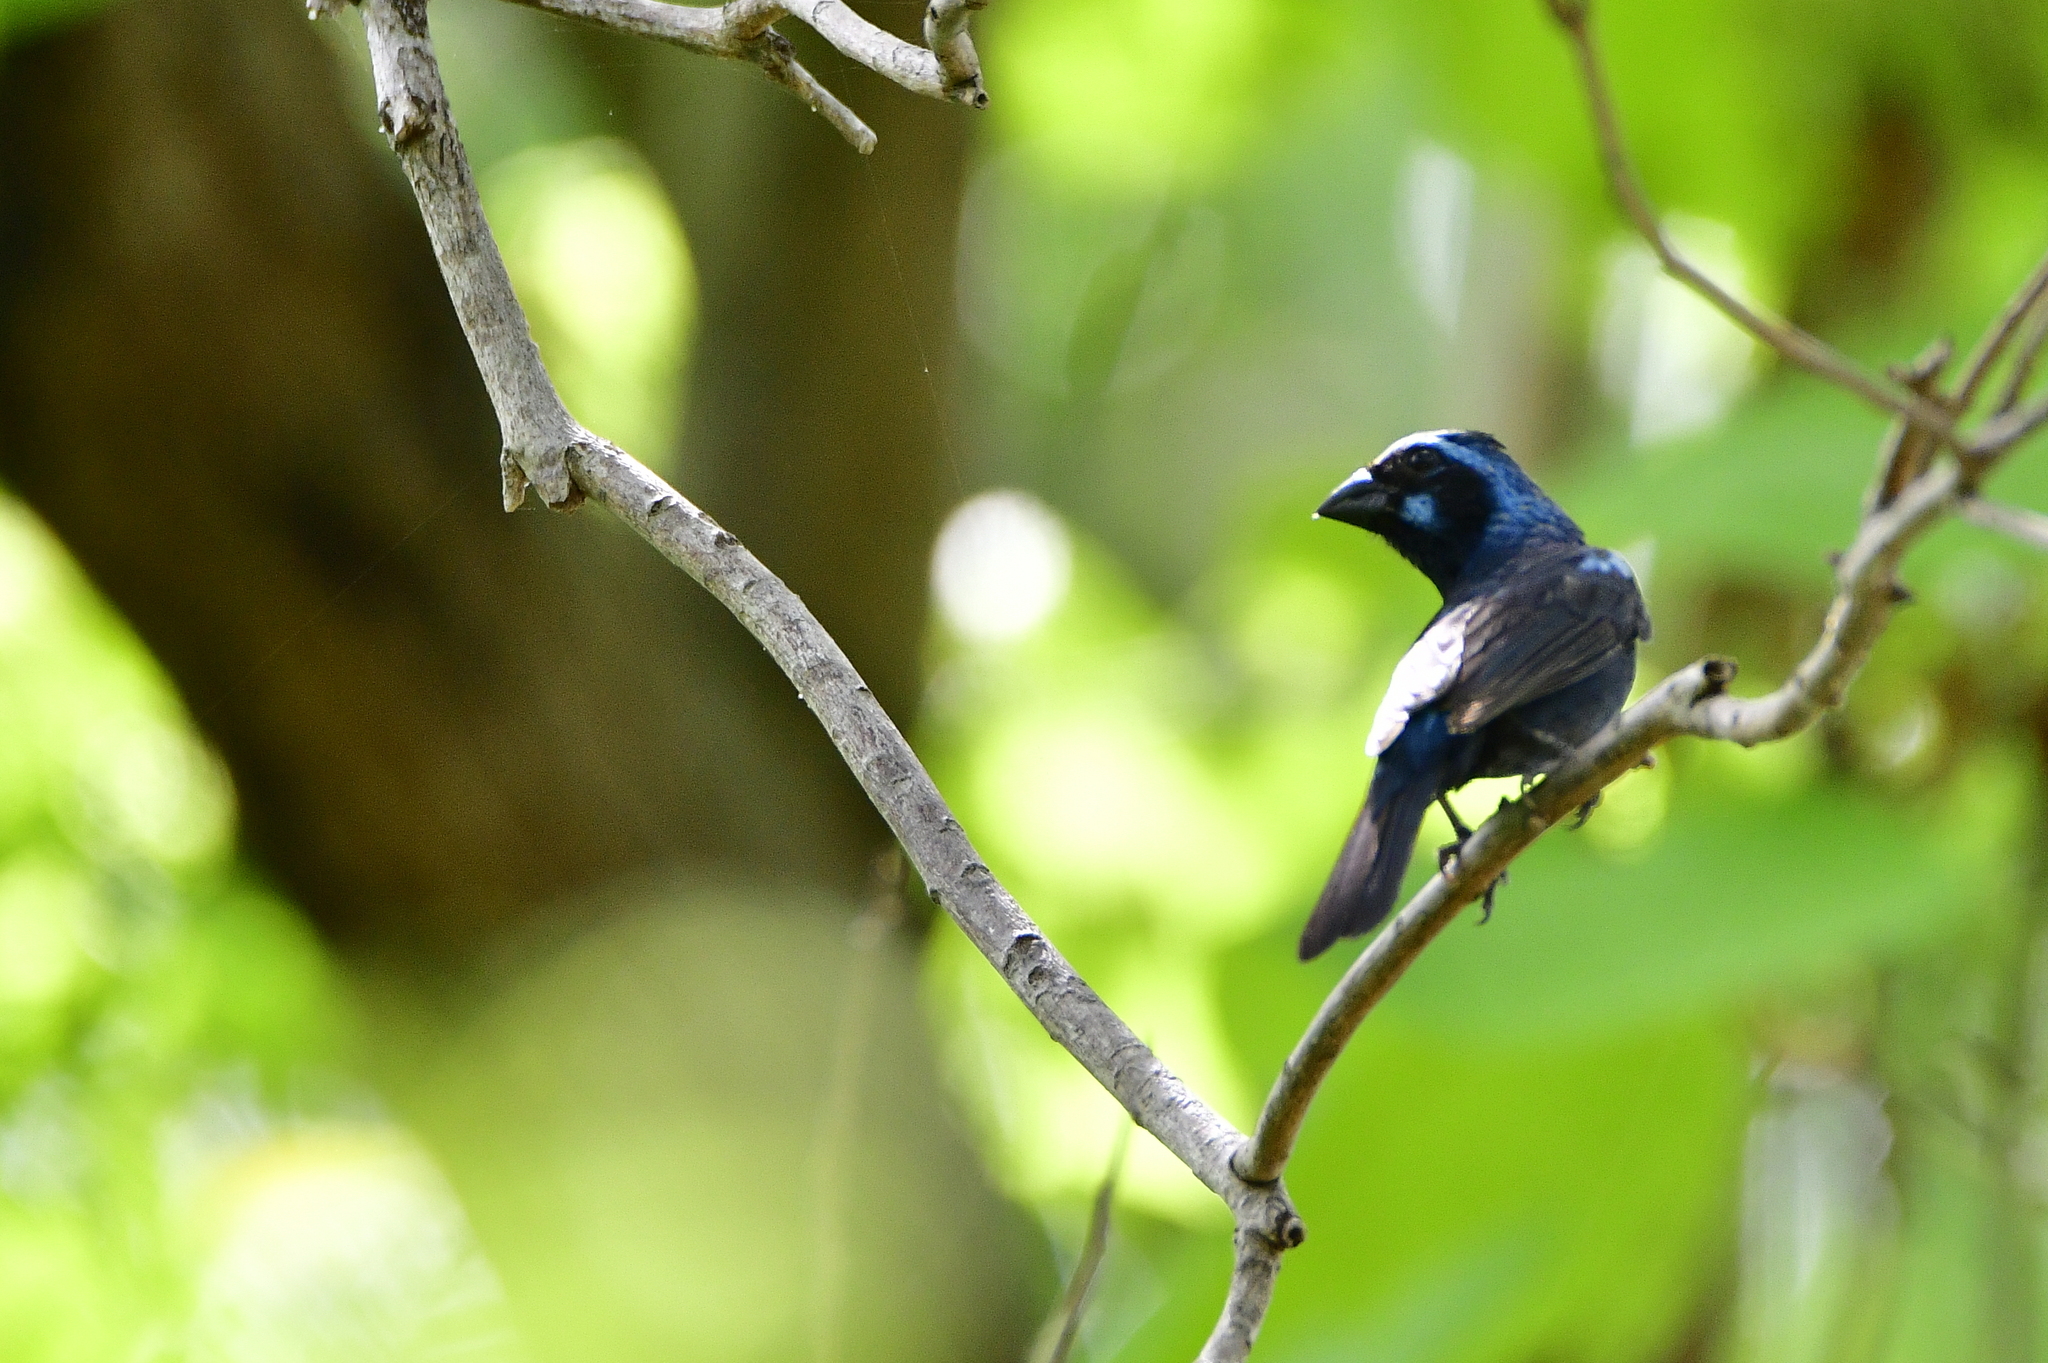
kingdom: Animalia
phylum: Chordata
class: Aves
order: Passeriformes
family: Cardinalidae
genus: Cyanocompsa
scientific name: Cyanocompsa parellina
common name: Blue bunting
